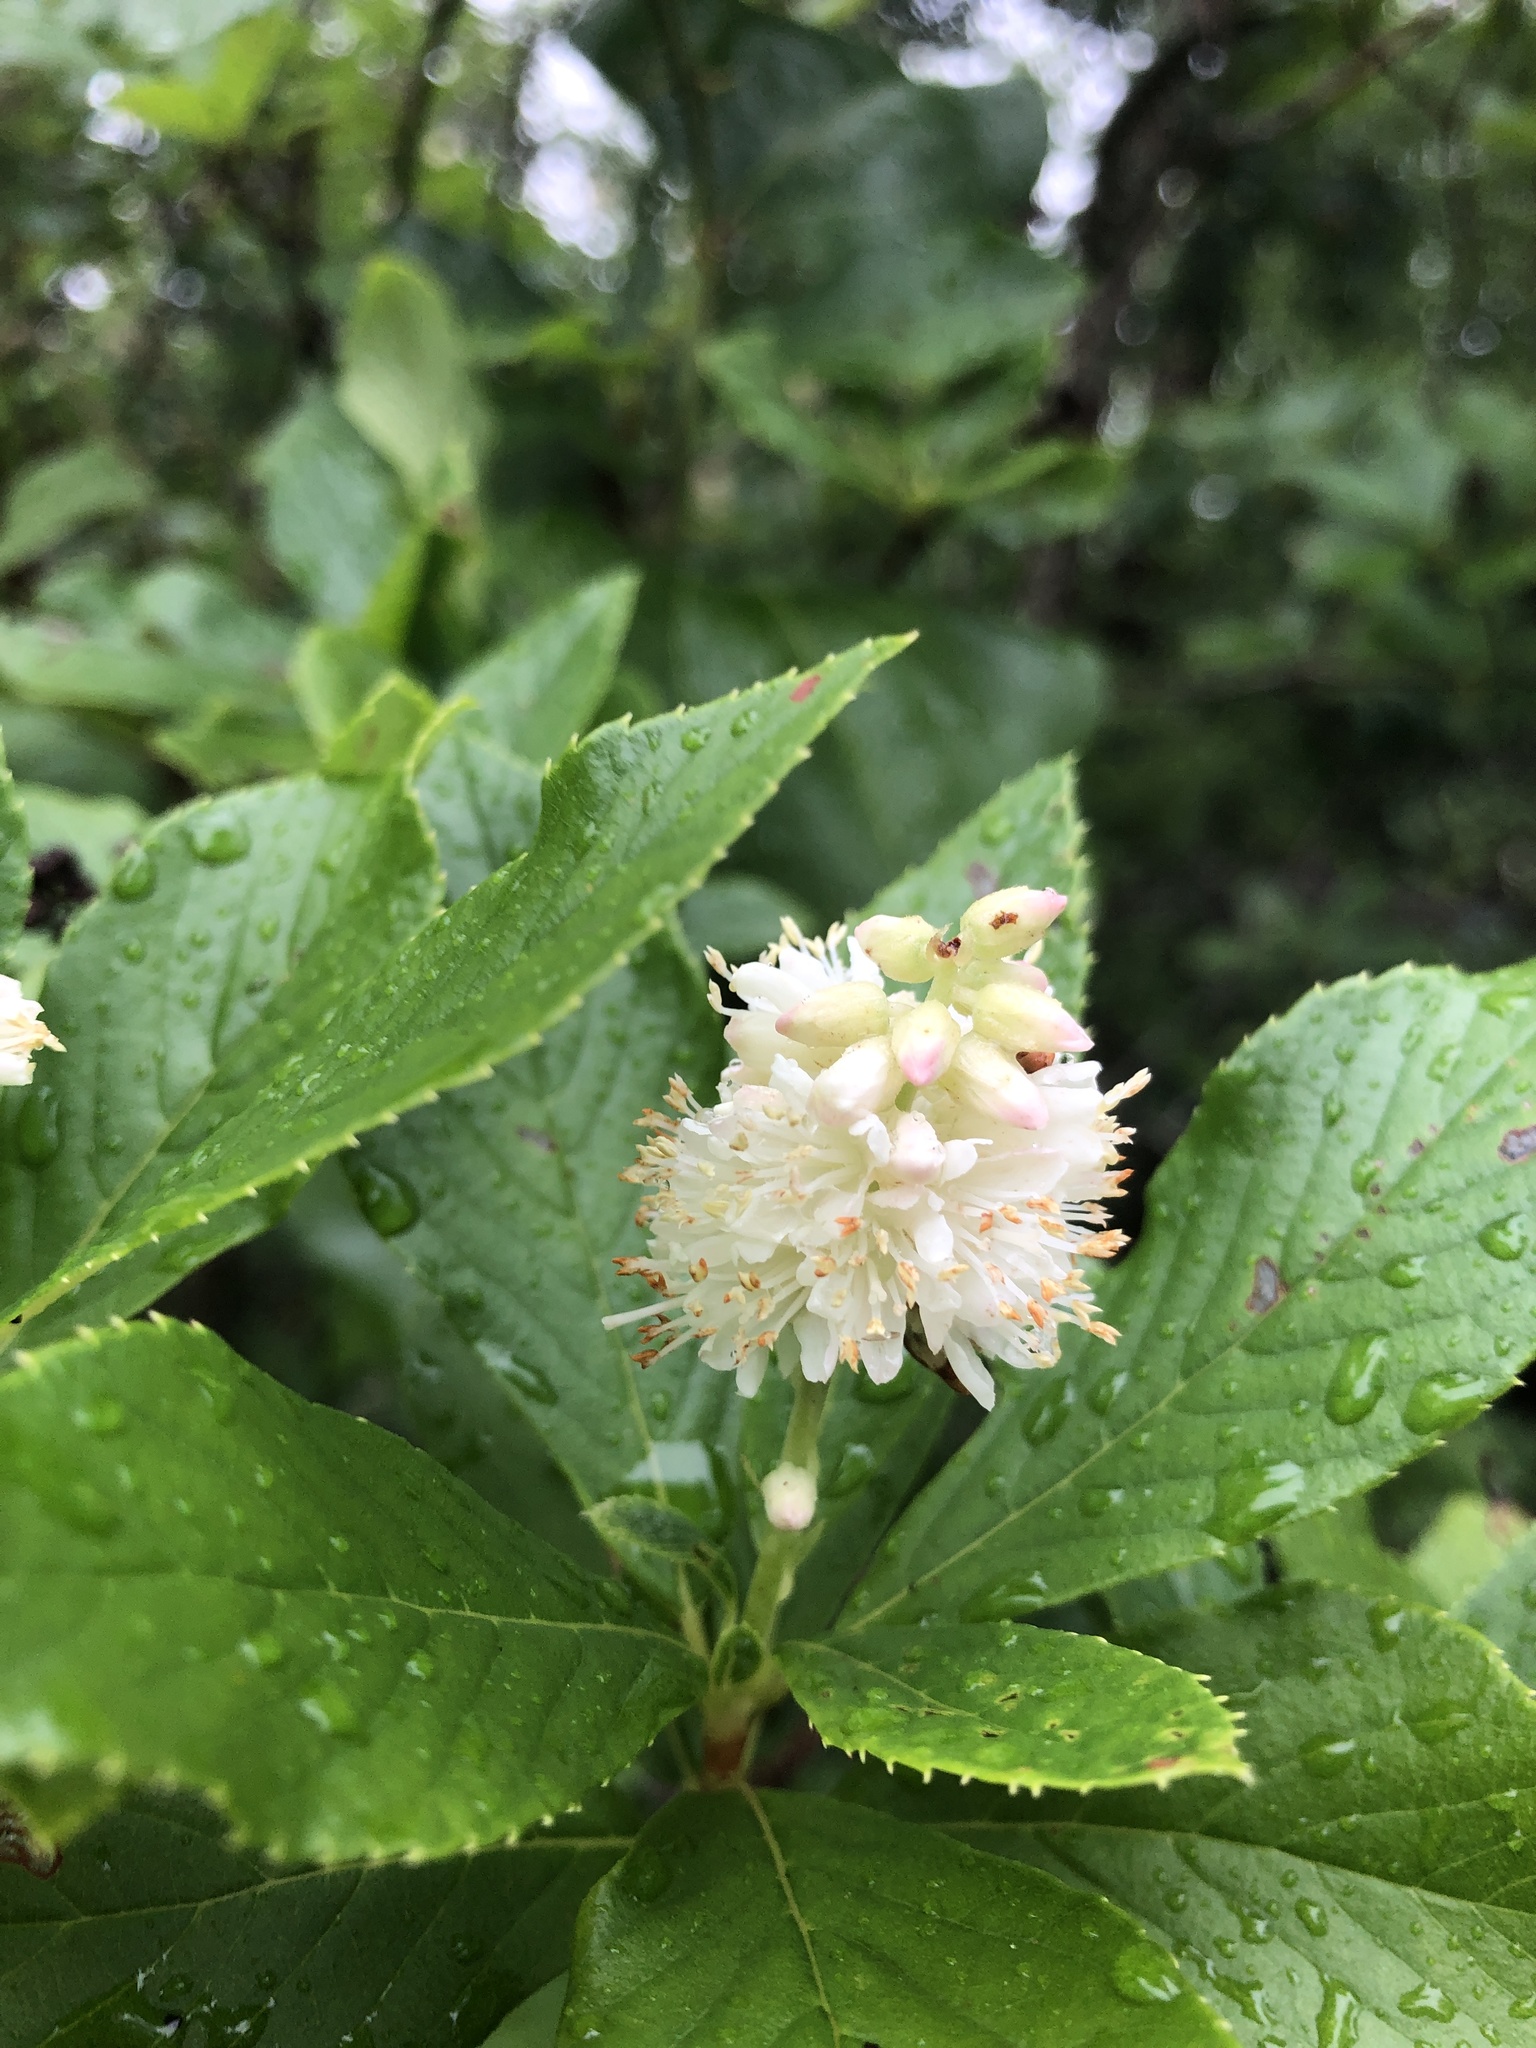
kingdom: Plantae
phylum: Tracheophyta
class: Magnoliopsida
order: Ericales
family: Clethraceae
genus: Clethra
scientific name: Clethra alnifolia
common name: Sweet pepperbush
